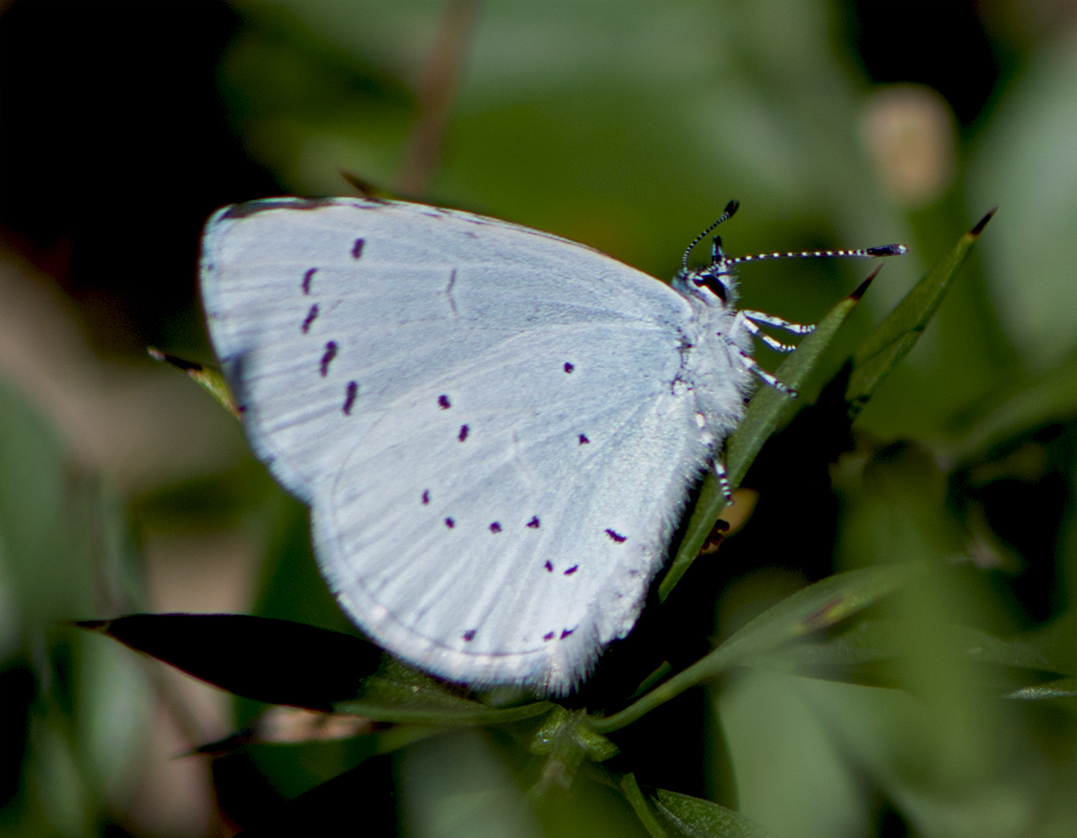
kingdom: Animalia
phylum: Arthropoda
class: Insecta
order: Lepidoptera
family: Lycaenidae
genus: Celastrina
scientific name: Celastrina argiolus
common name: Holly blue
